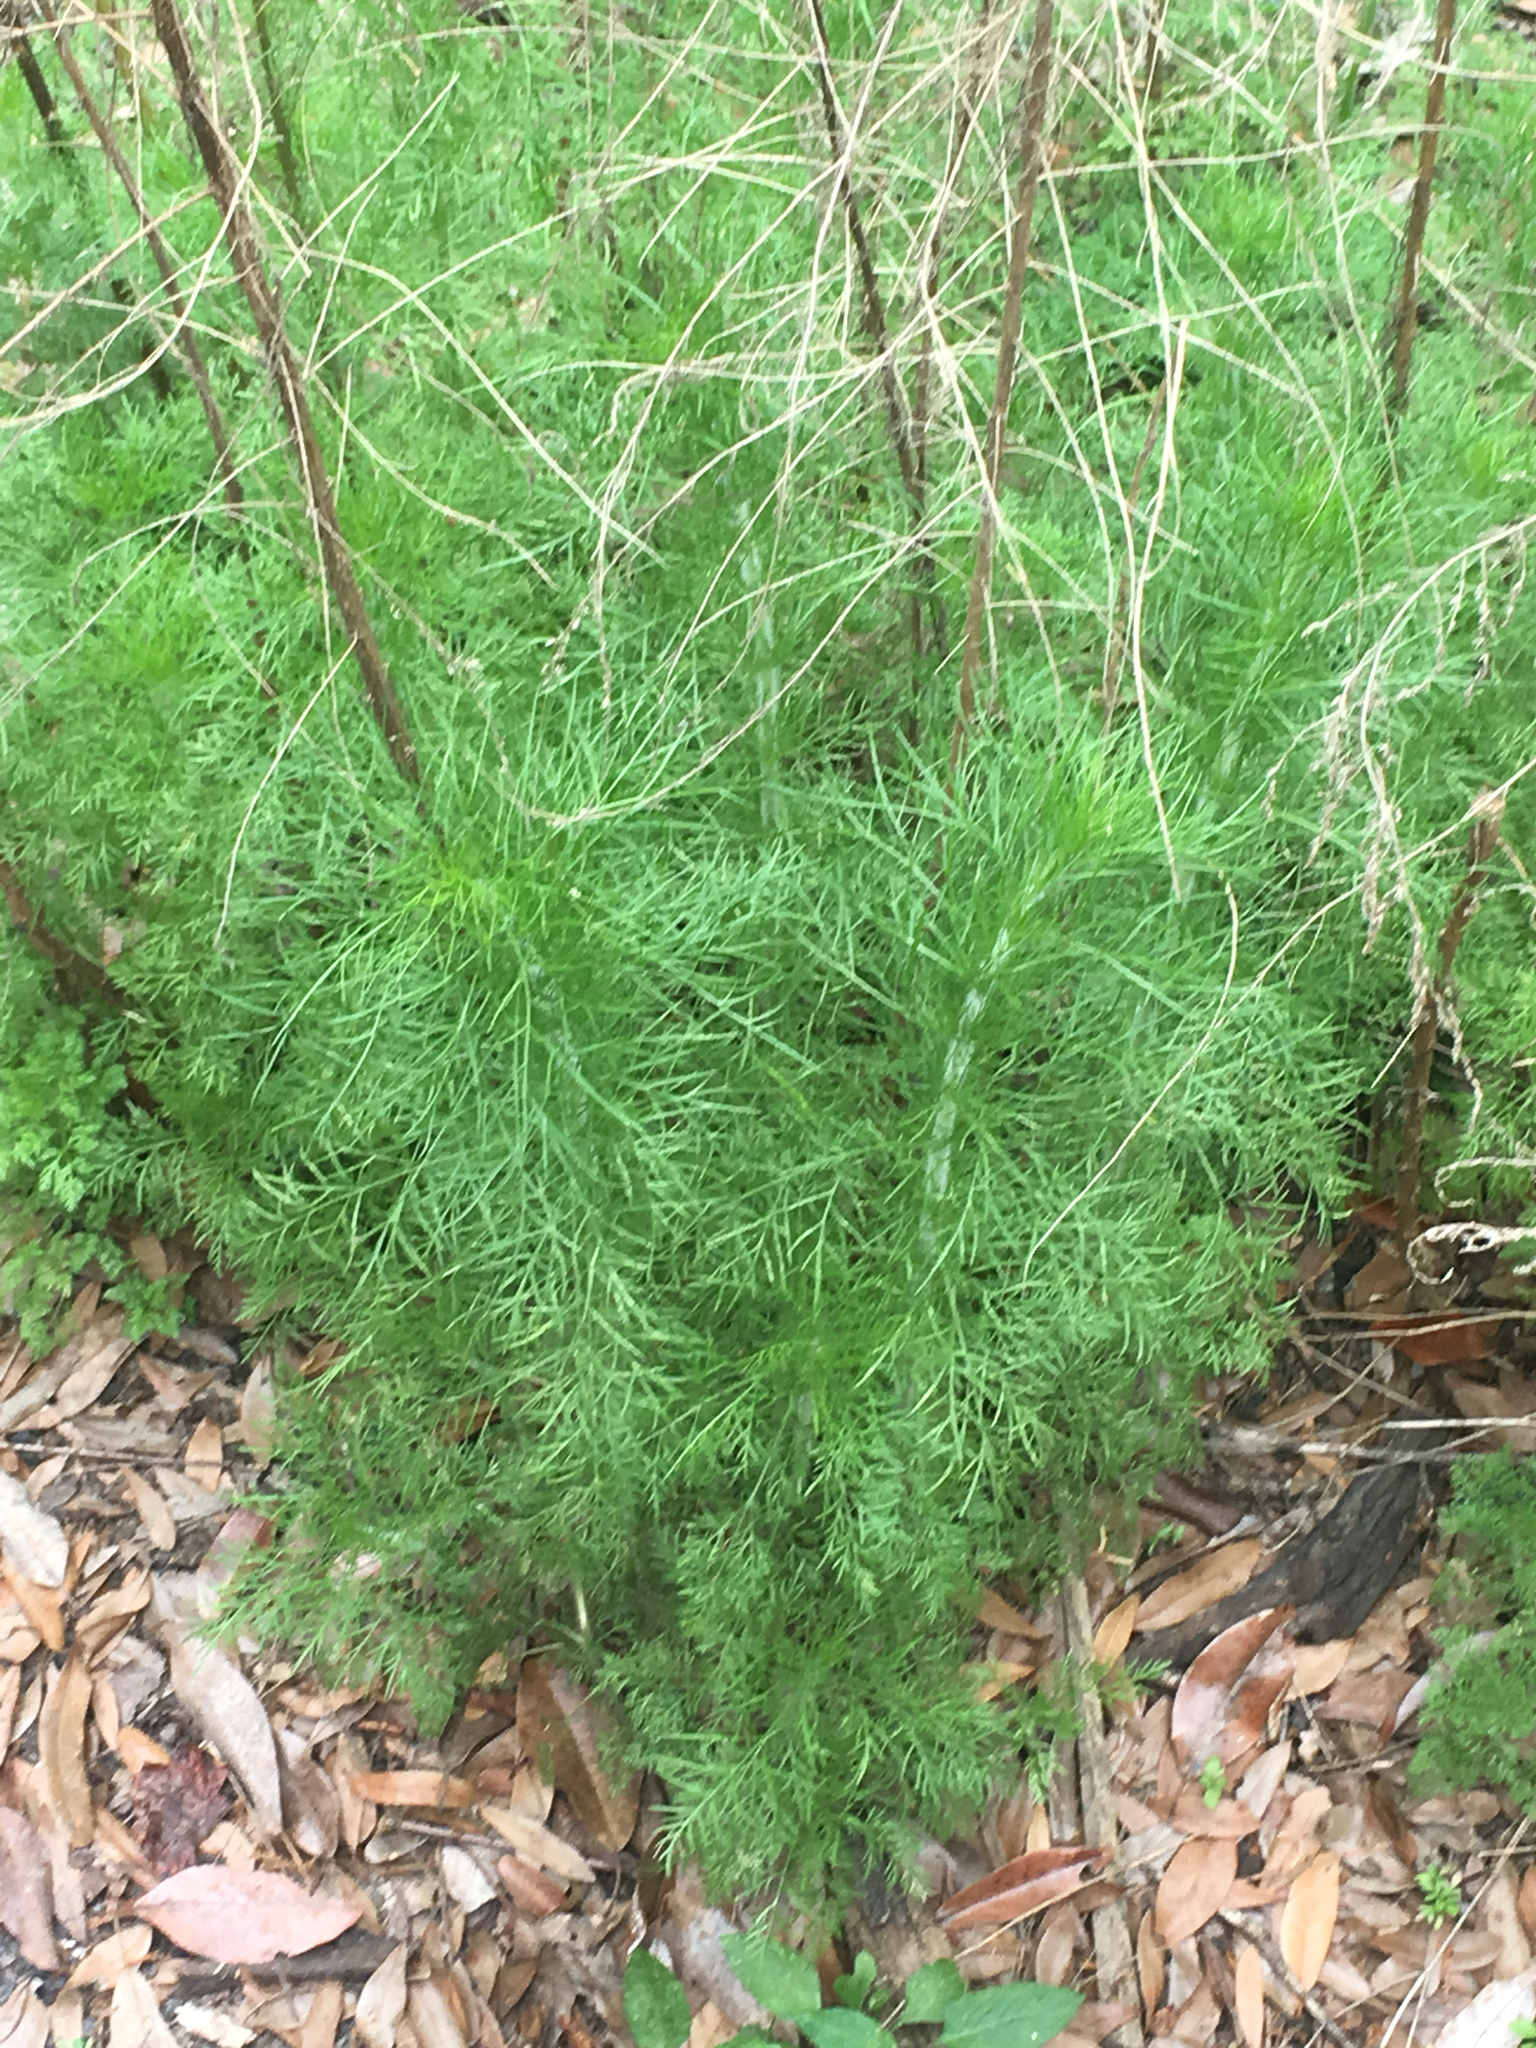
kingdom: Plantae
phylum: Tracheophyta
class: Magnoliopsida
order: Asterales
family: Asteraceae
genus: Eupatorium
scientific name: Eupatorium capillifolium
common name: Dog-fennel
